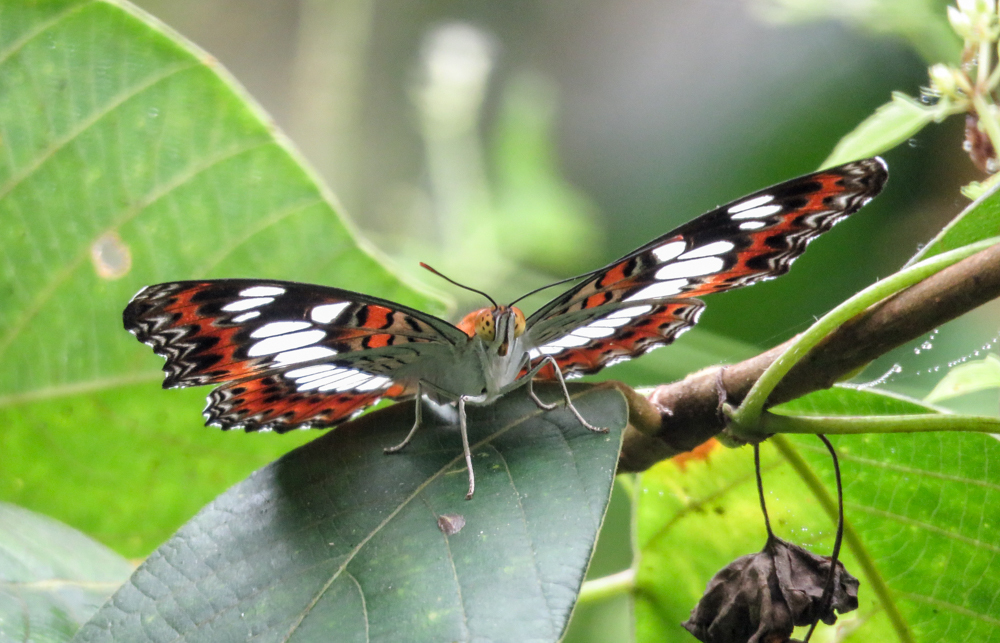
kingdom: Animalia
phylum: Arthropoda
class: Insecta
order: Lepidoptera
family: Nymphalidae
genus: Limenitis
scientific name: Limenitis Moduza procris
